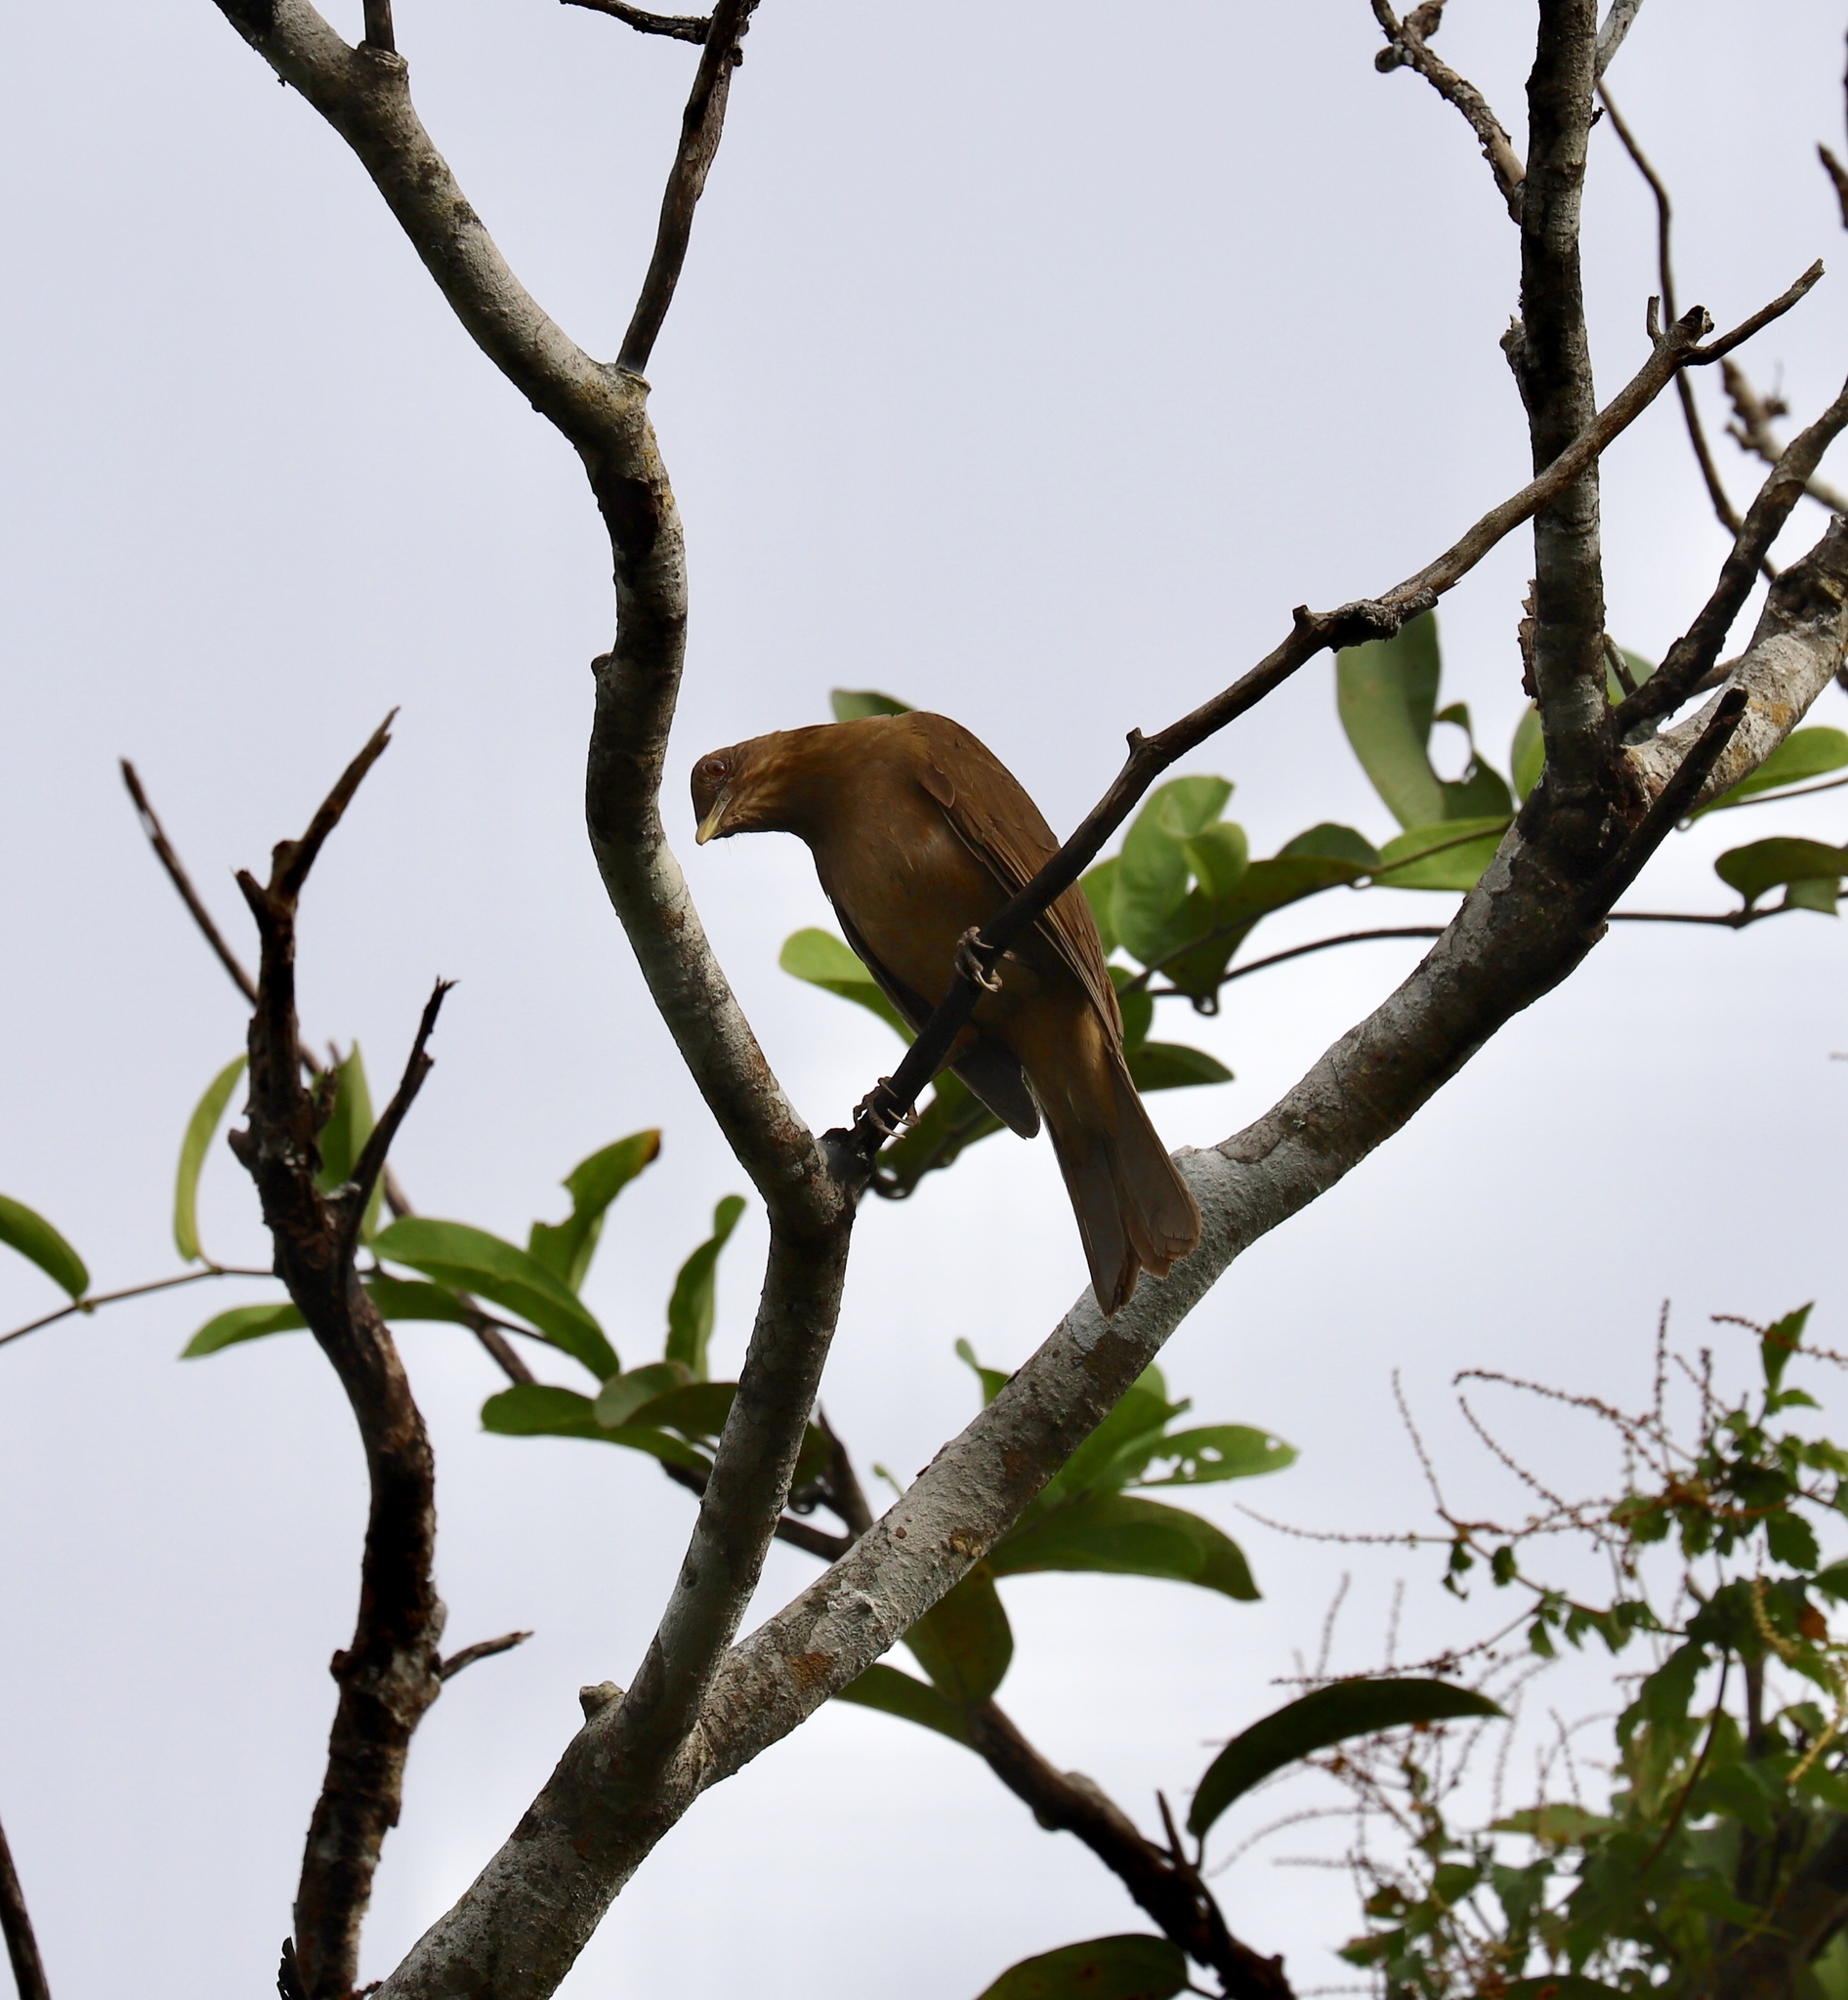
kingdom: Animalia
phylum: Chordata
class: Aves
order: Passeriformes
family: Turdidae
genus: Turdus
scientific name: Turdus grayi
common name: Clay-colored thrush
